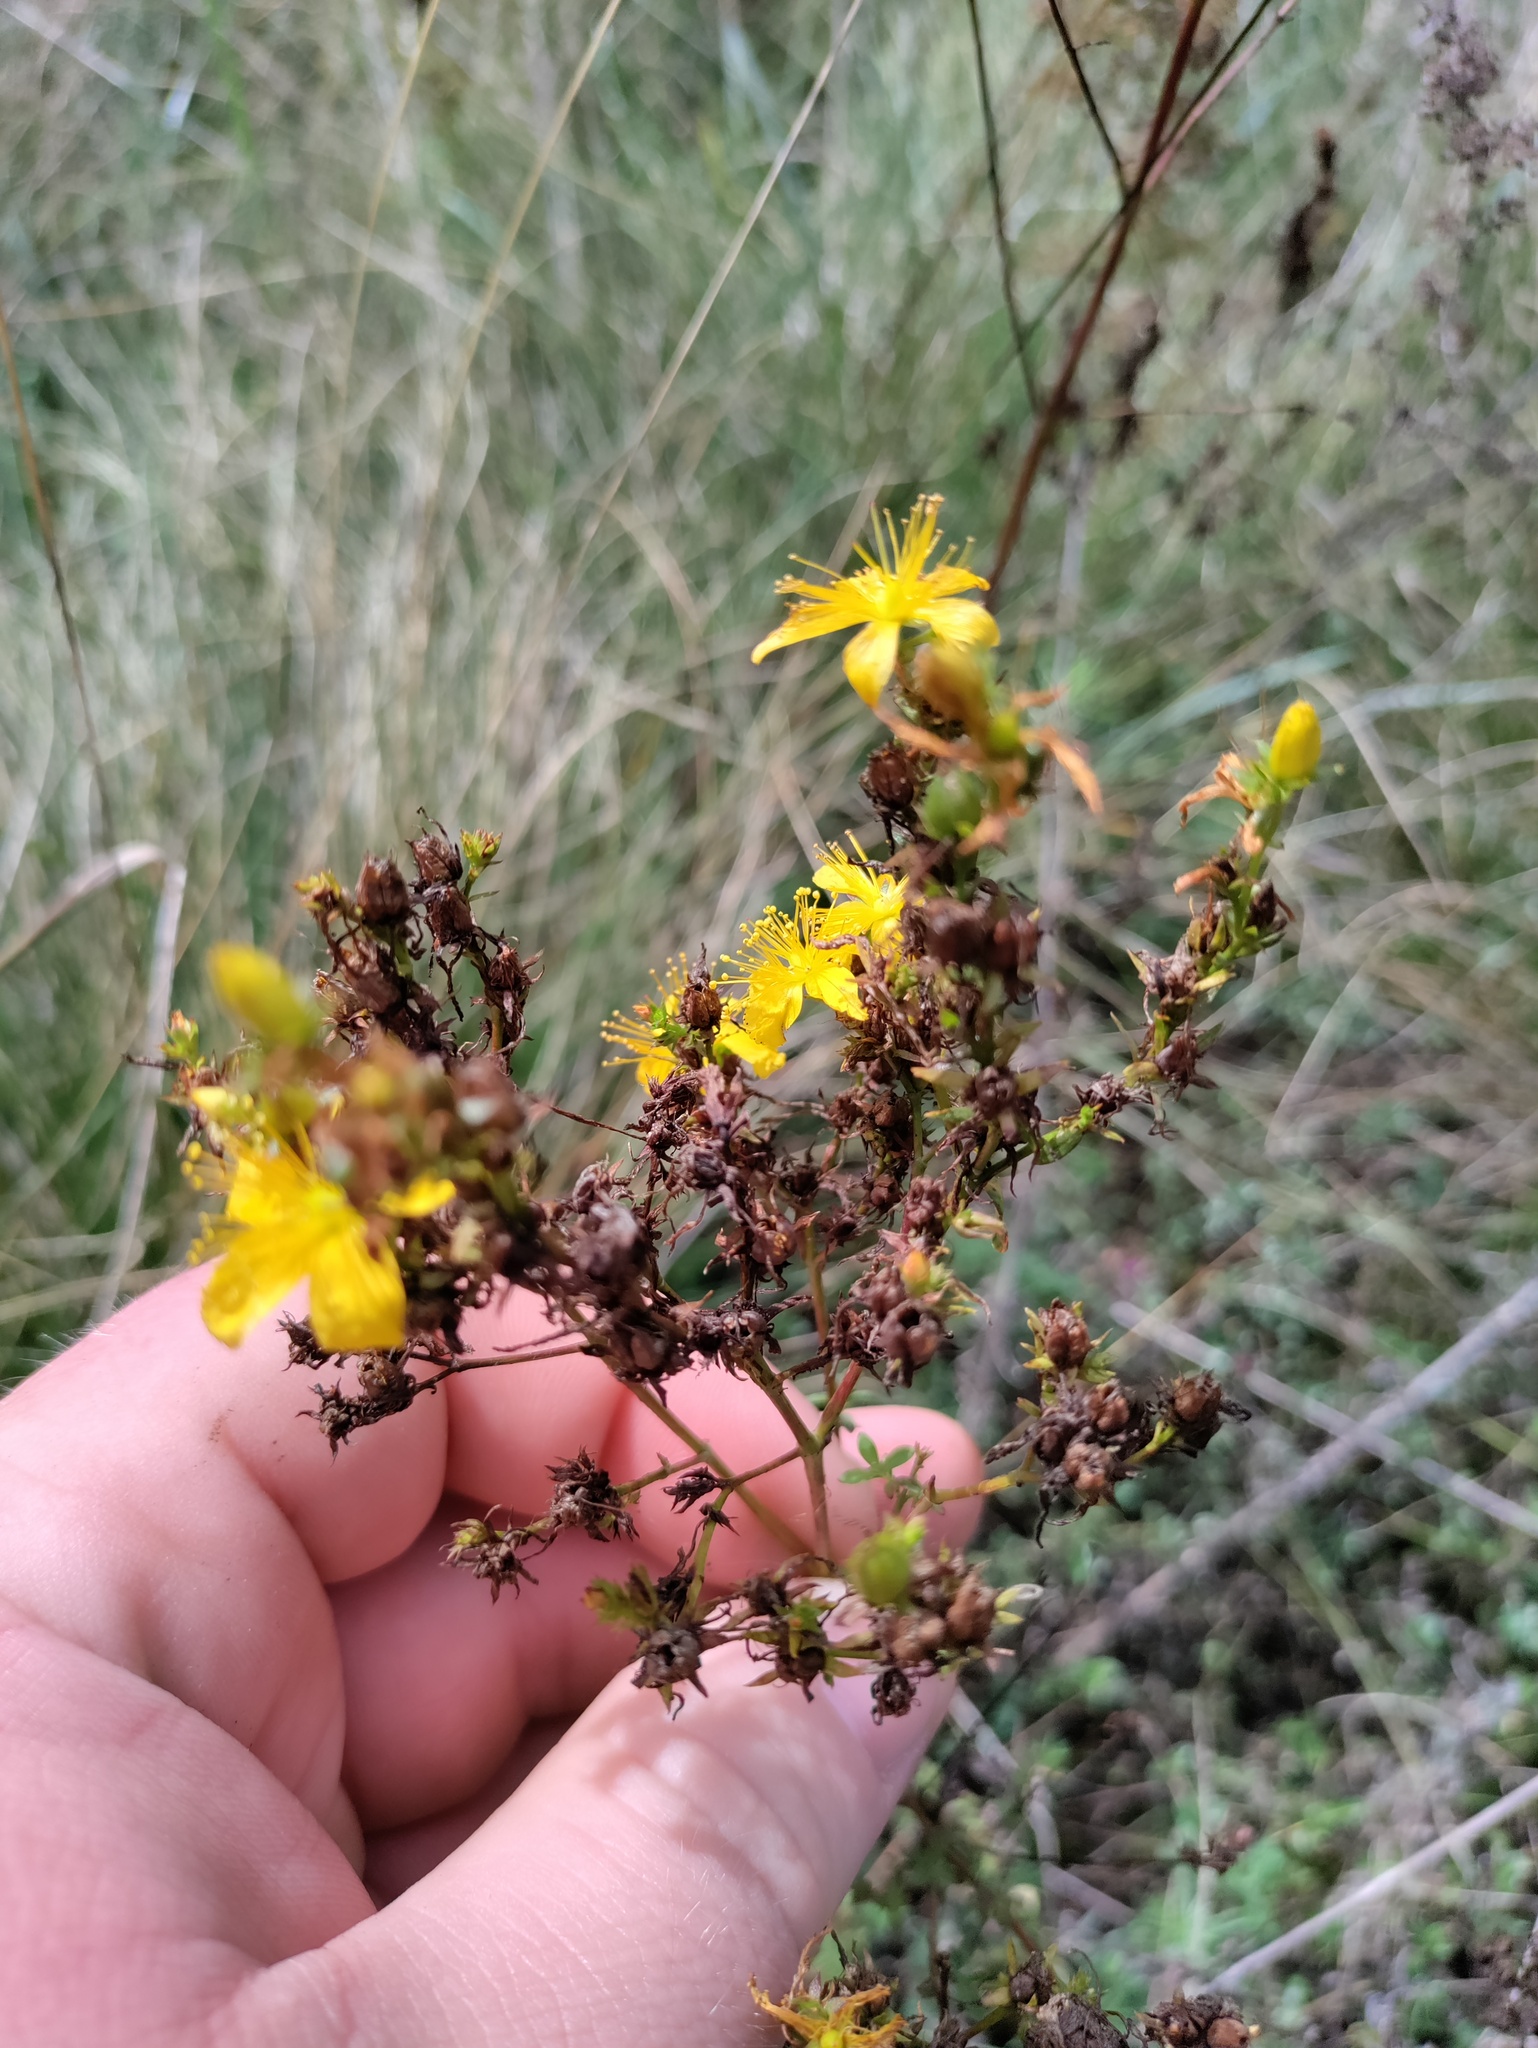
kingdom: Plantae
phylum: Tracheophyta
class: Magnoliopsida
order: Malpighiales
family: Hypericaceae
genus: Hypericum
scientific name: Hypericum perforatum
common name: Common st. johnswort
